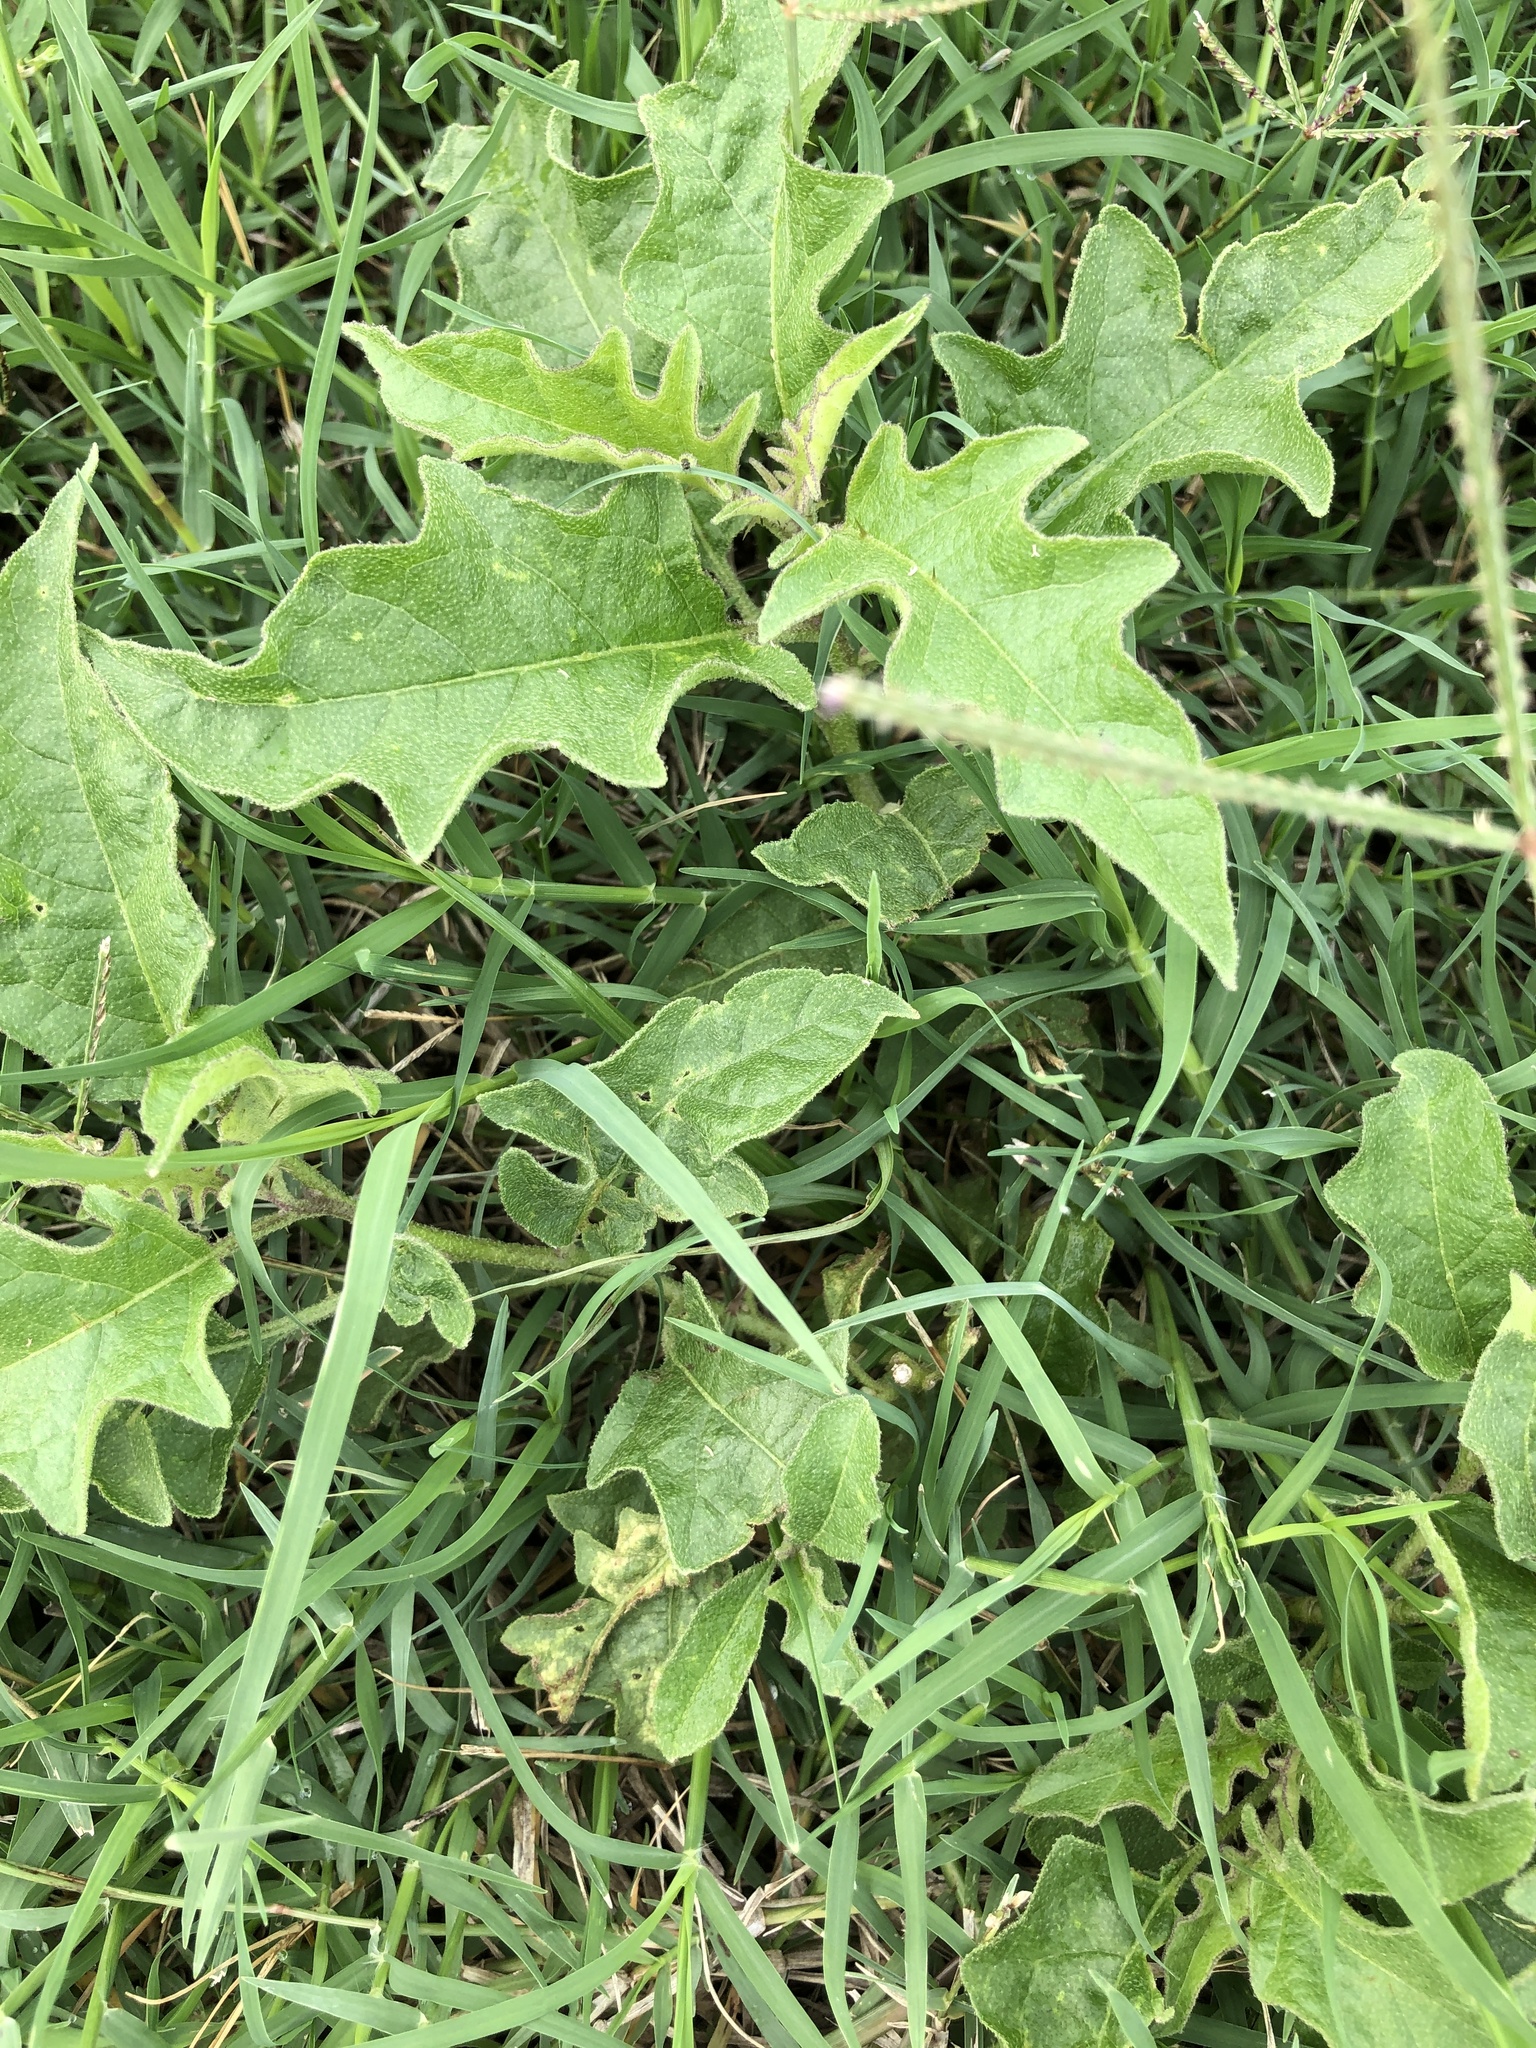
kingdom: Plantae
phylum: Tracheophyta
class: Magnoliopsida
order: Solanales
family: Solanaceae
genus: Solanum
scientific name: Solanum dimidiatum
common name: Carolina horse-nettle
